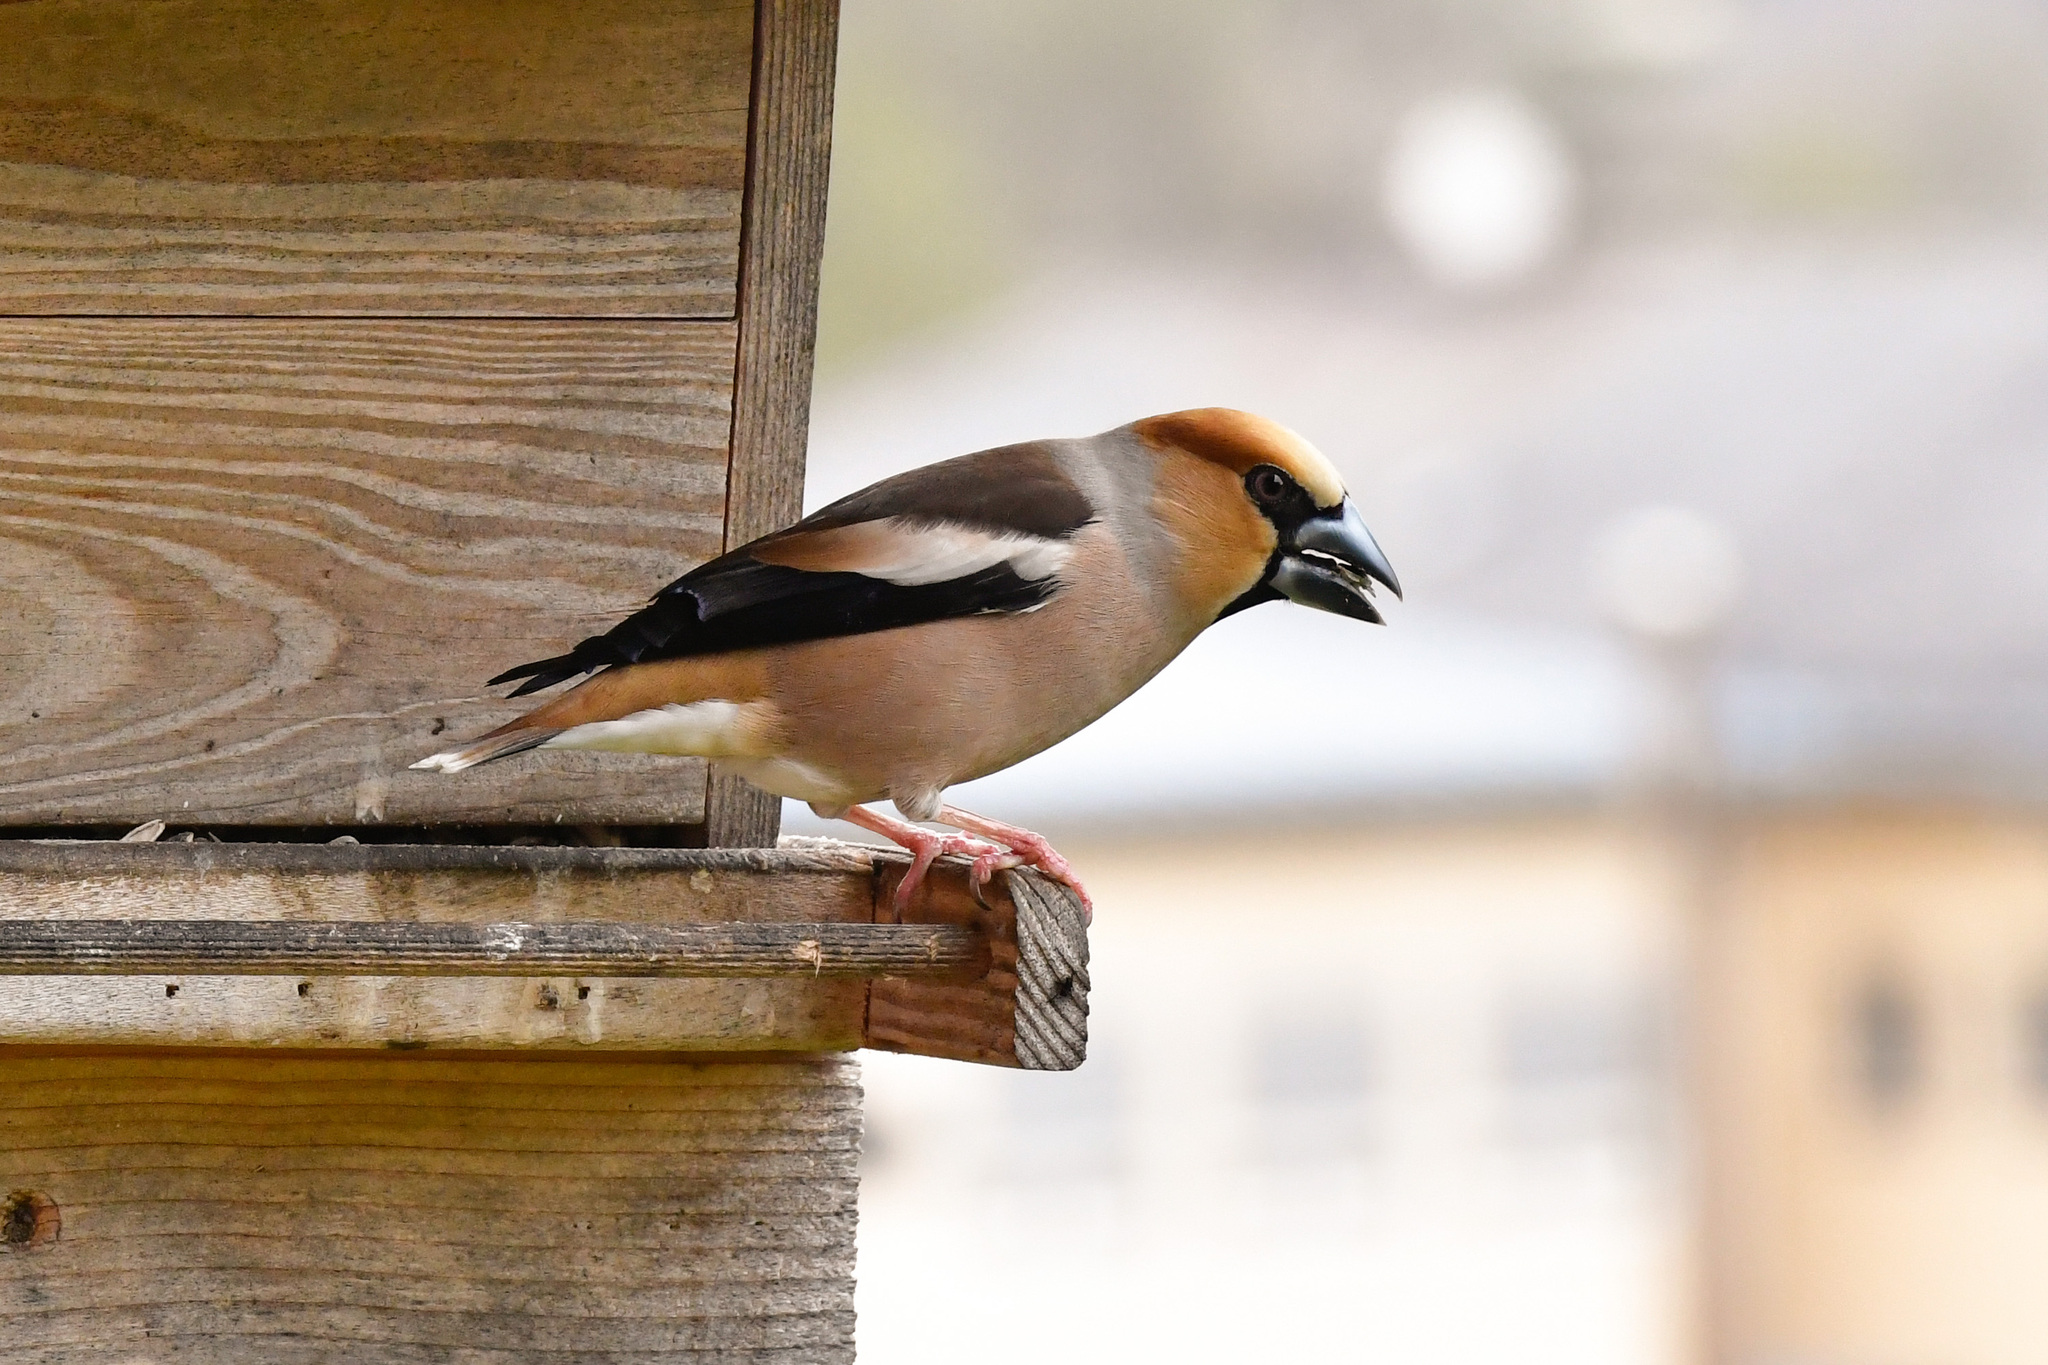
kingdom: Animalia
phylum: Chordata
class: Aves
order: Passeriformes
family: Fringillidae
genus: Coccothraustes
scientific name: Coccothraustes coccothraustes
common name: Hawfinch
